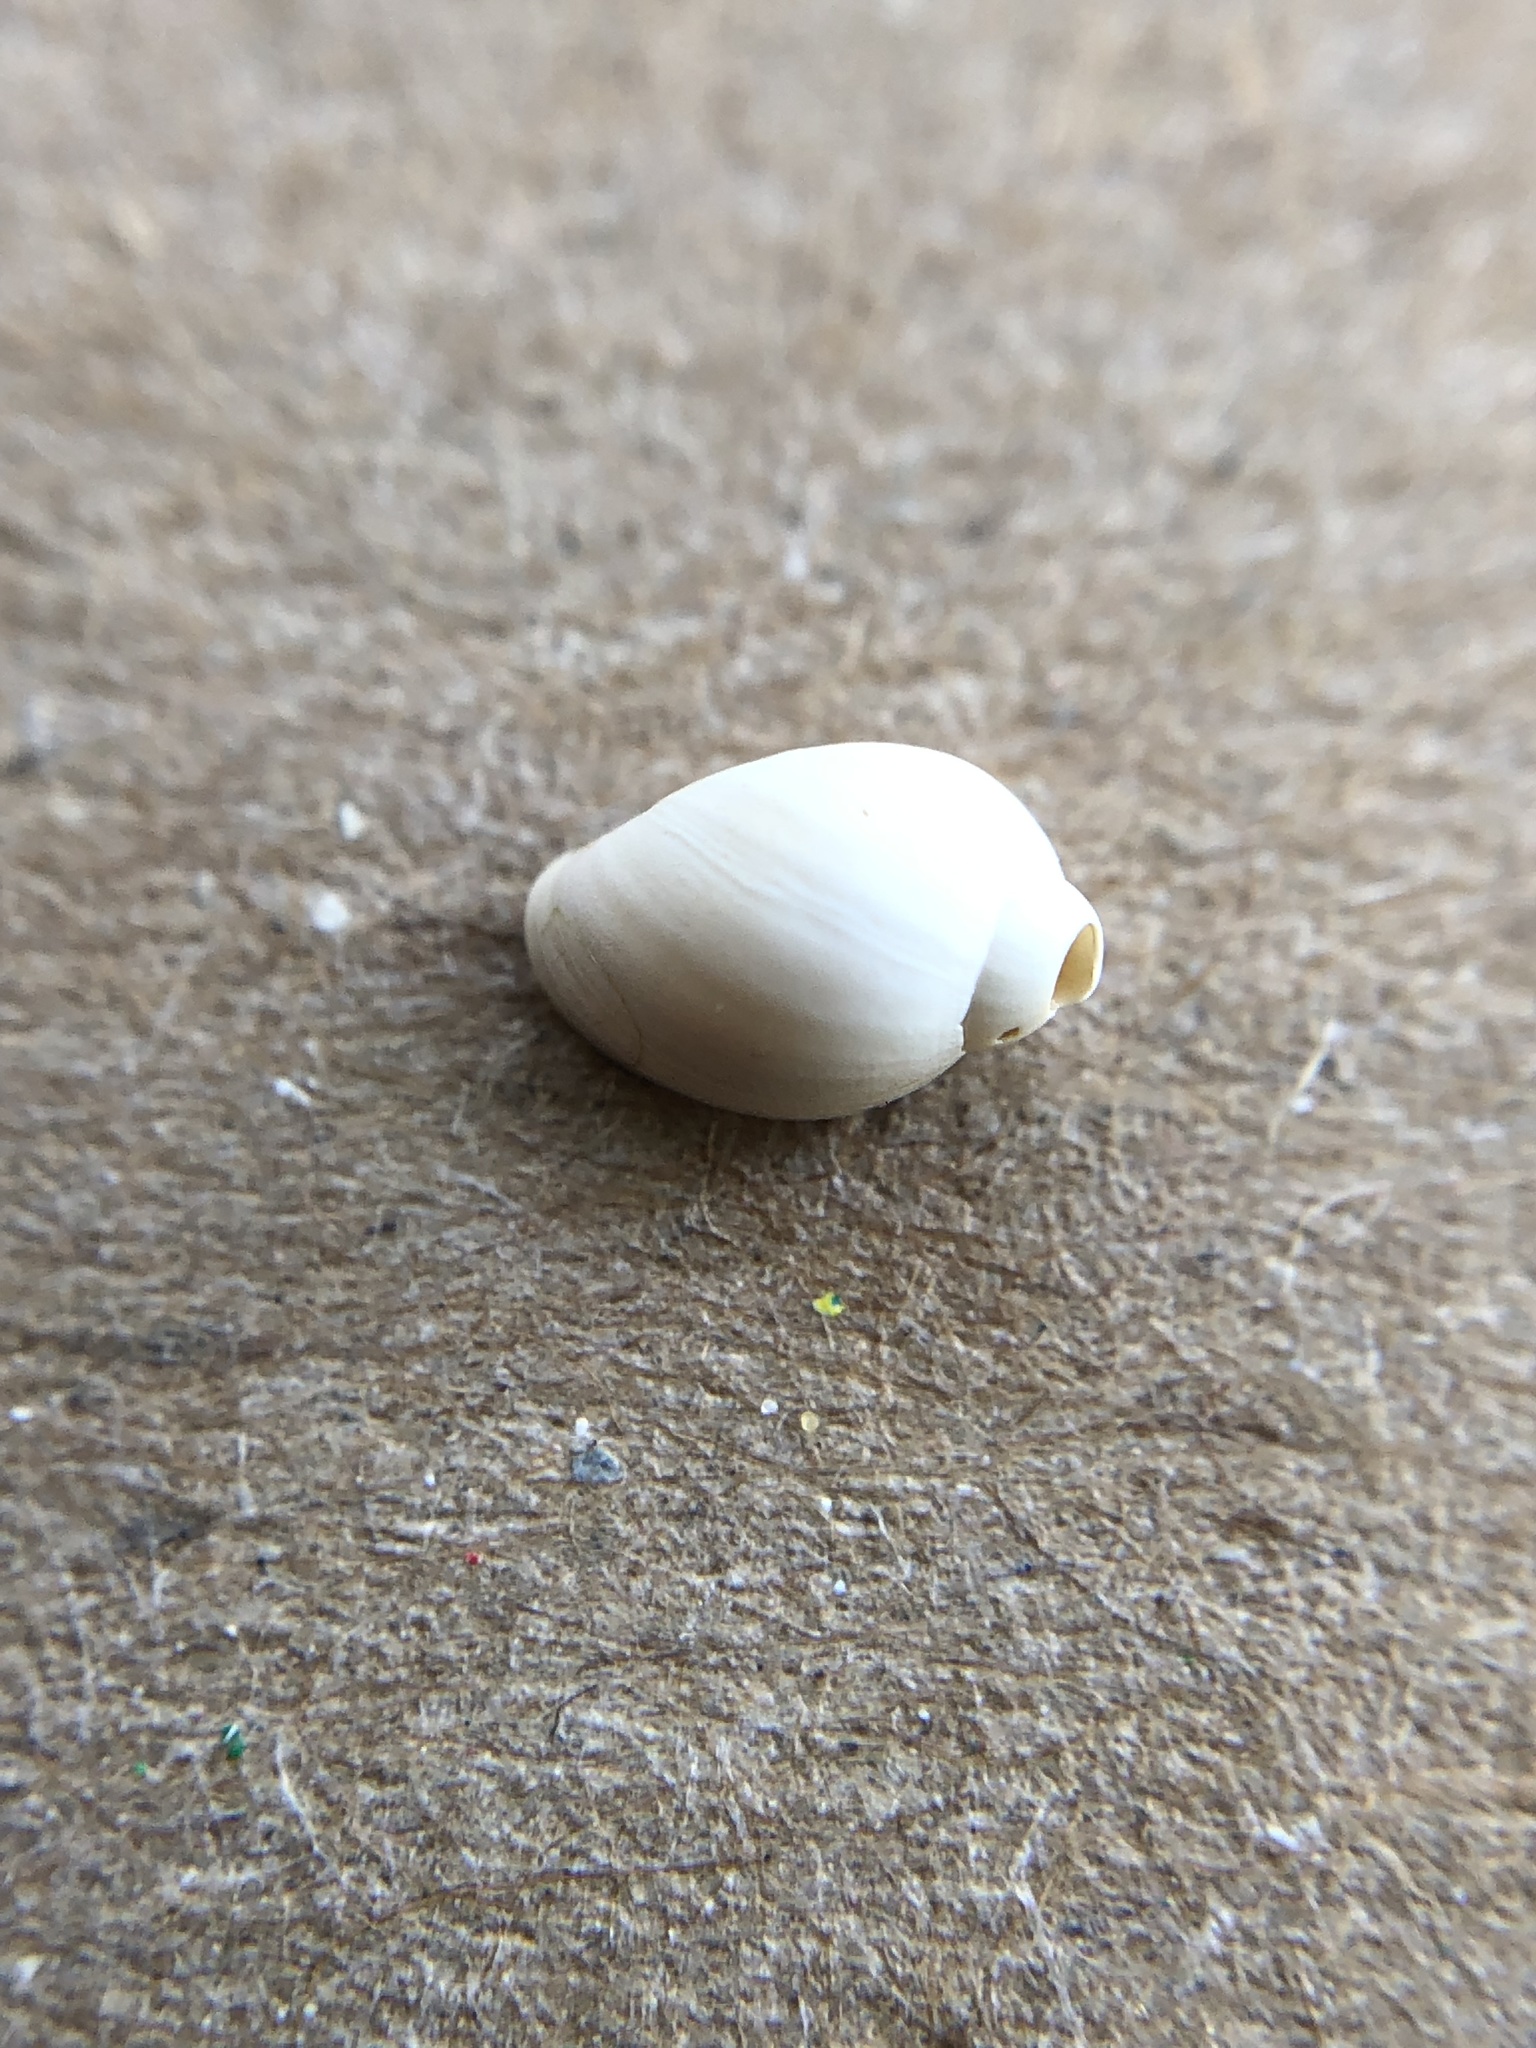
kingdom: Animalia
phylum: Mollusca
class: Gastropoda
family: Physidae
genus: Physella
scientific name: Physella acuta
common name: European physa
